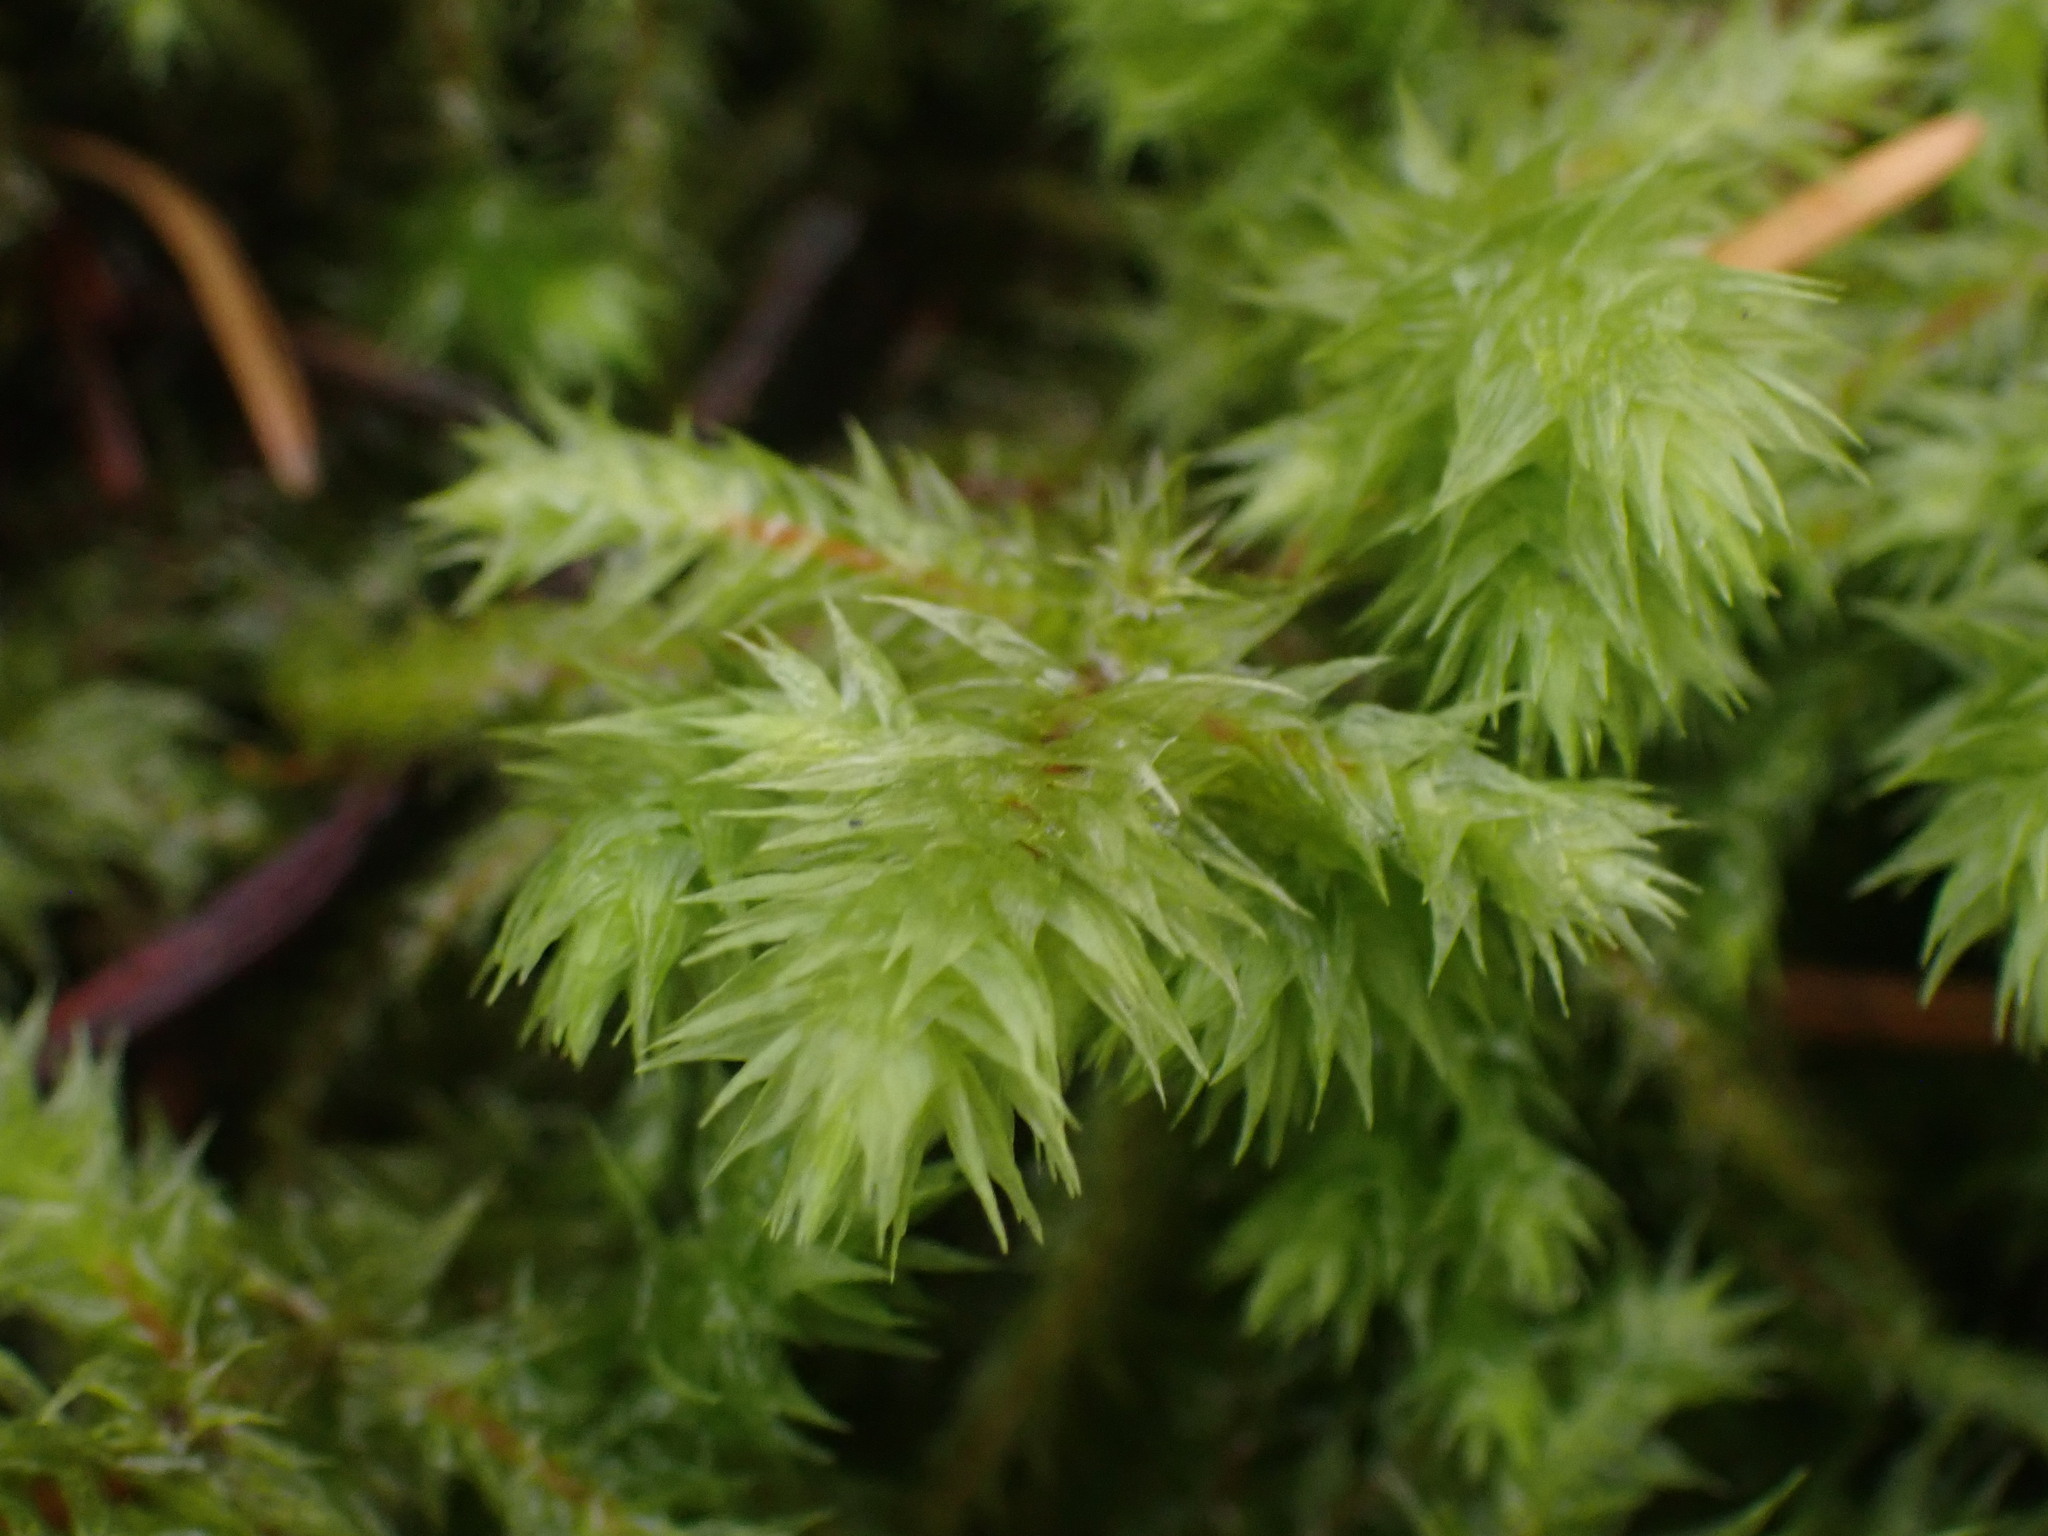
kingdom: Plantae
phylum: Bryophyta
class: Bryopsida
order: Hypnales
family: Hylocomiaceae
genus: Hylocomiadelphus
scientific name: Hylocomiadelphus triquetrus
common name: Rough goose neck moss
